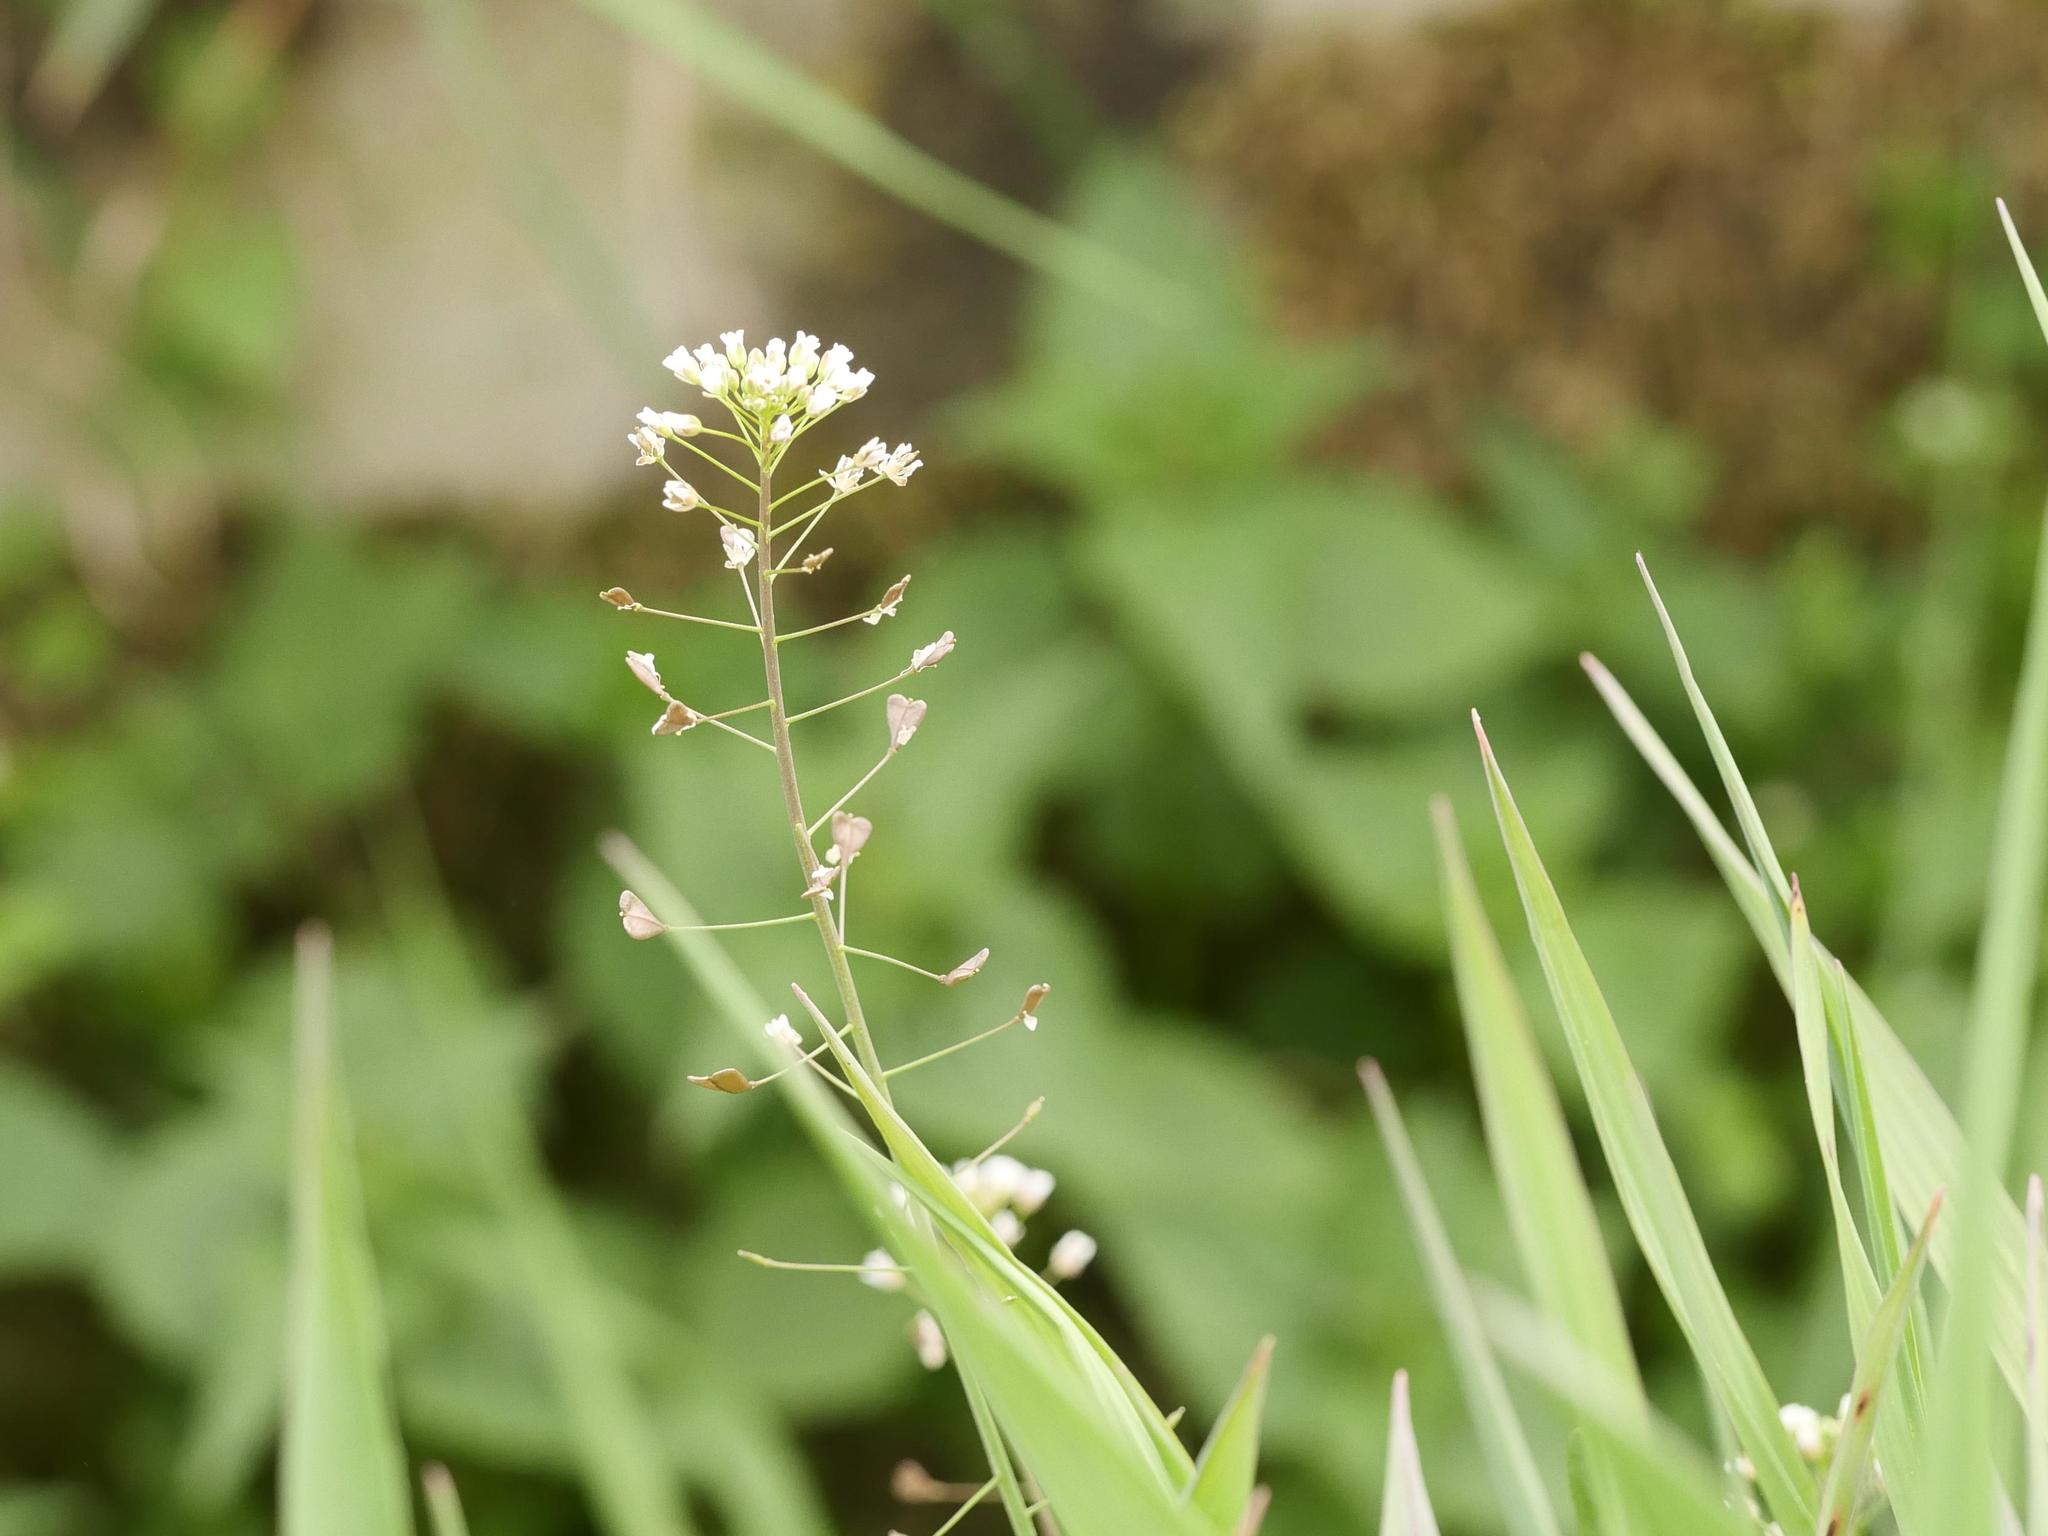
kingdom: Plantae
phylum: Tracheophyta
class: Magnoliopsida
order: Brassicales
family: Brassicaceae
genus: Capsella
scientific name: Capsella bursa-pastoris
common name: Shepherd's purse
